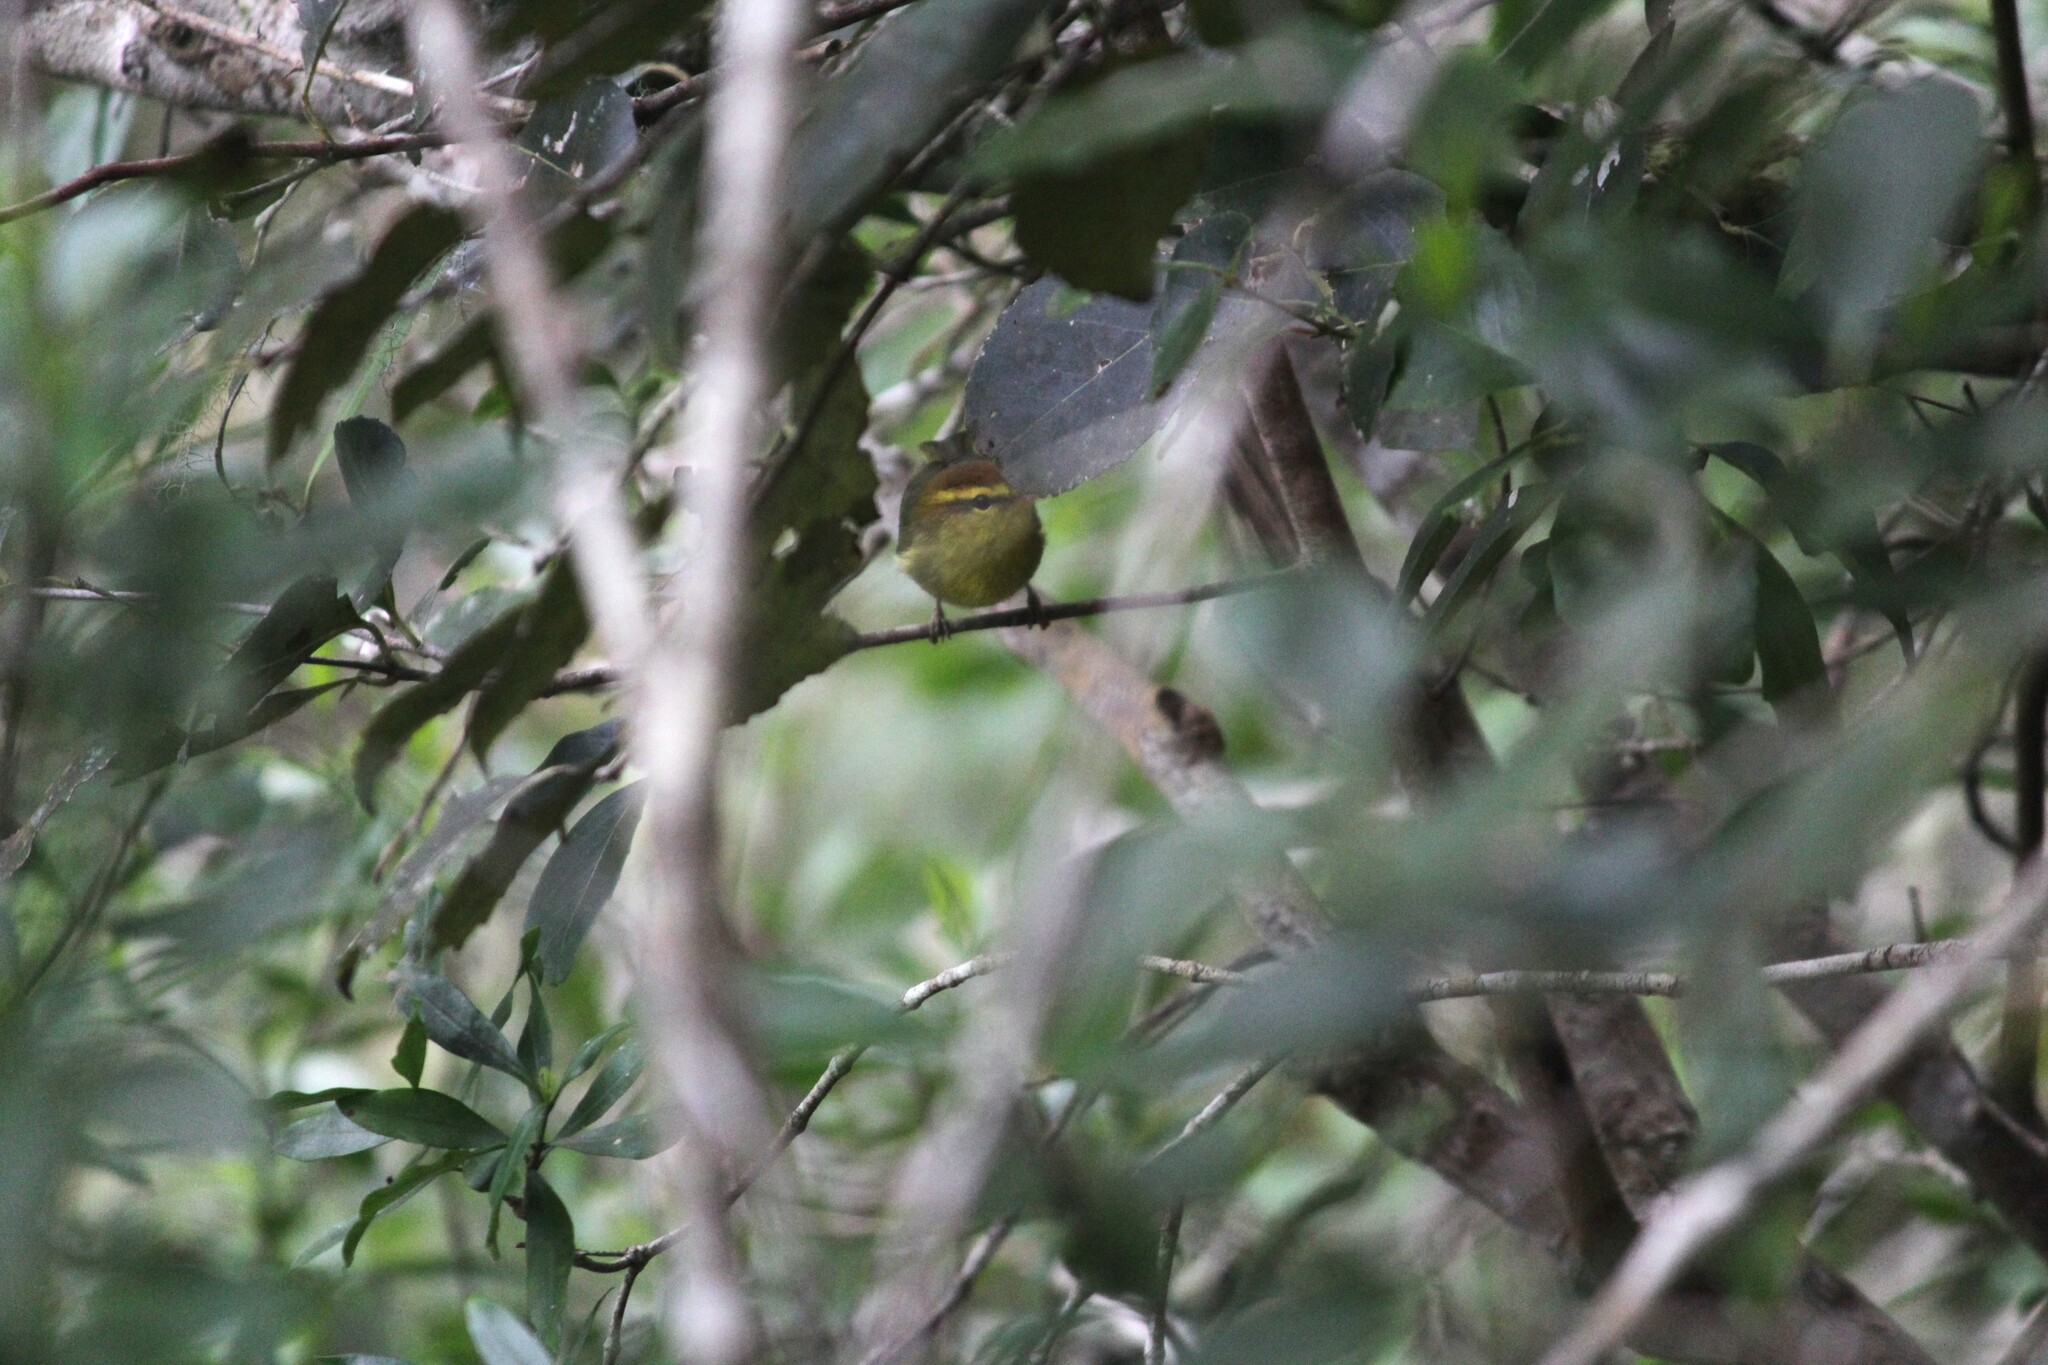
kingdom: Animalia
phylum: Chordata
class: Aves
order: Passeriformes
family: Phylloscopidae
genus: Phylloscopus
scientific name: Phylloscopus ruficapilla
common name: Yellow-throated woodland warbler
